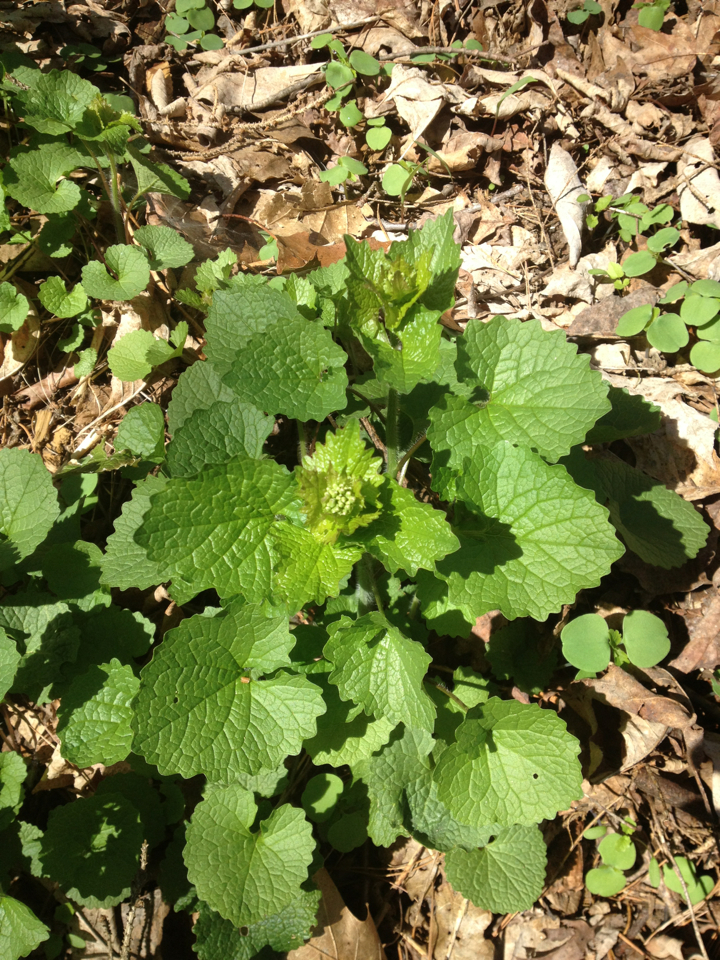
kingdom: Plantae
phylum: Tracheophyta
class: Magnoliopsida
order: Brassicales
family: Brassicaceae
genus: Alliaria
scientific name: Alliaria petiolata
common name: Garlic mustard
